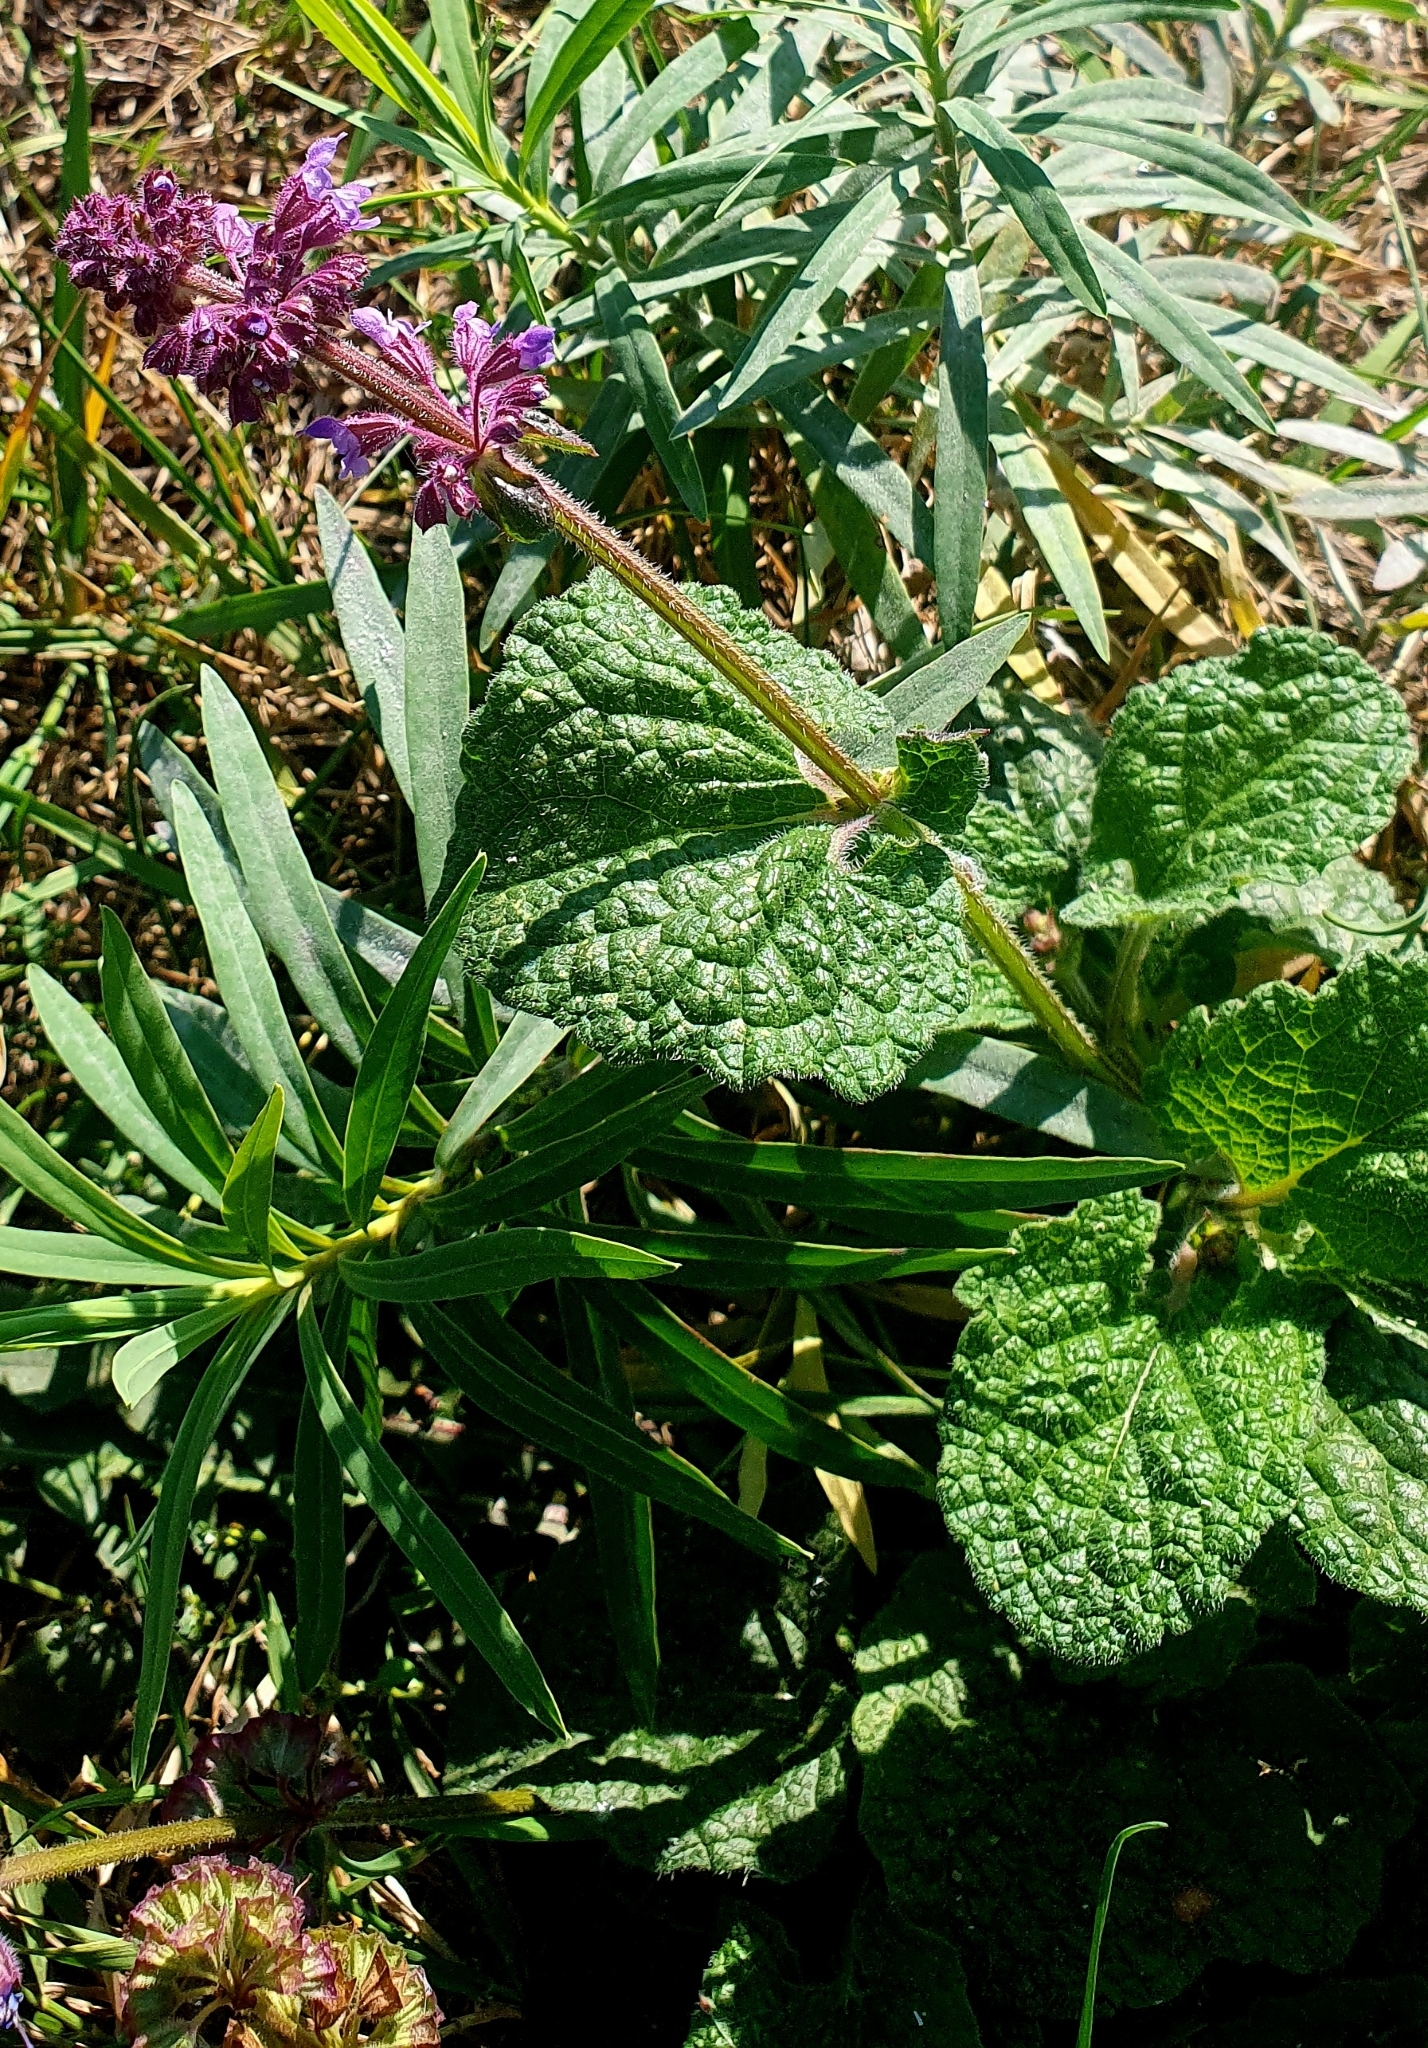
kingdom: Plantae
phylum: Tracheophyta
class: Magnoliopsida
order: Lamiales
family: Lamiaceae
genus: Salvia
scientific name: Salvia verticillata
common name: Whorled clary
